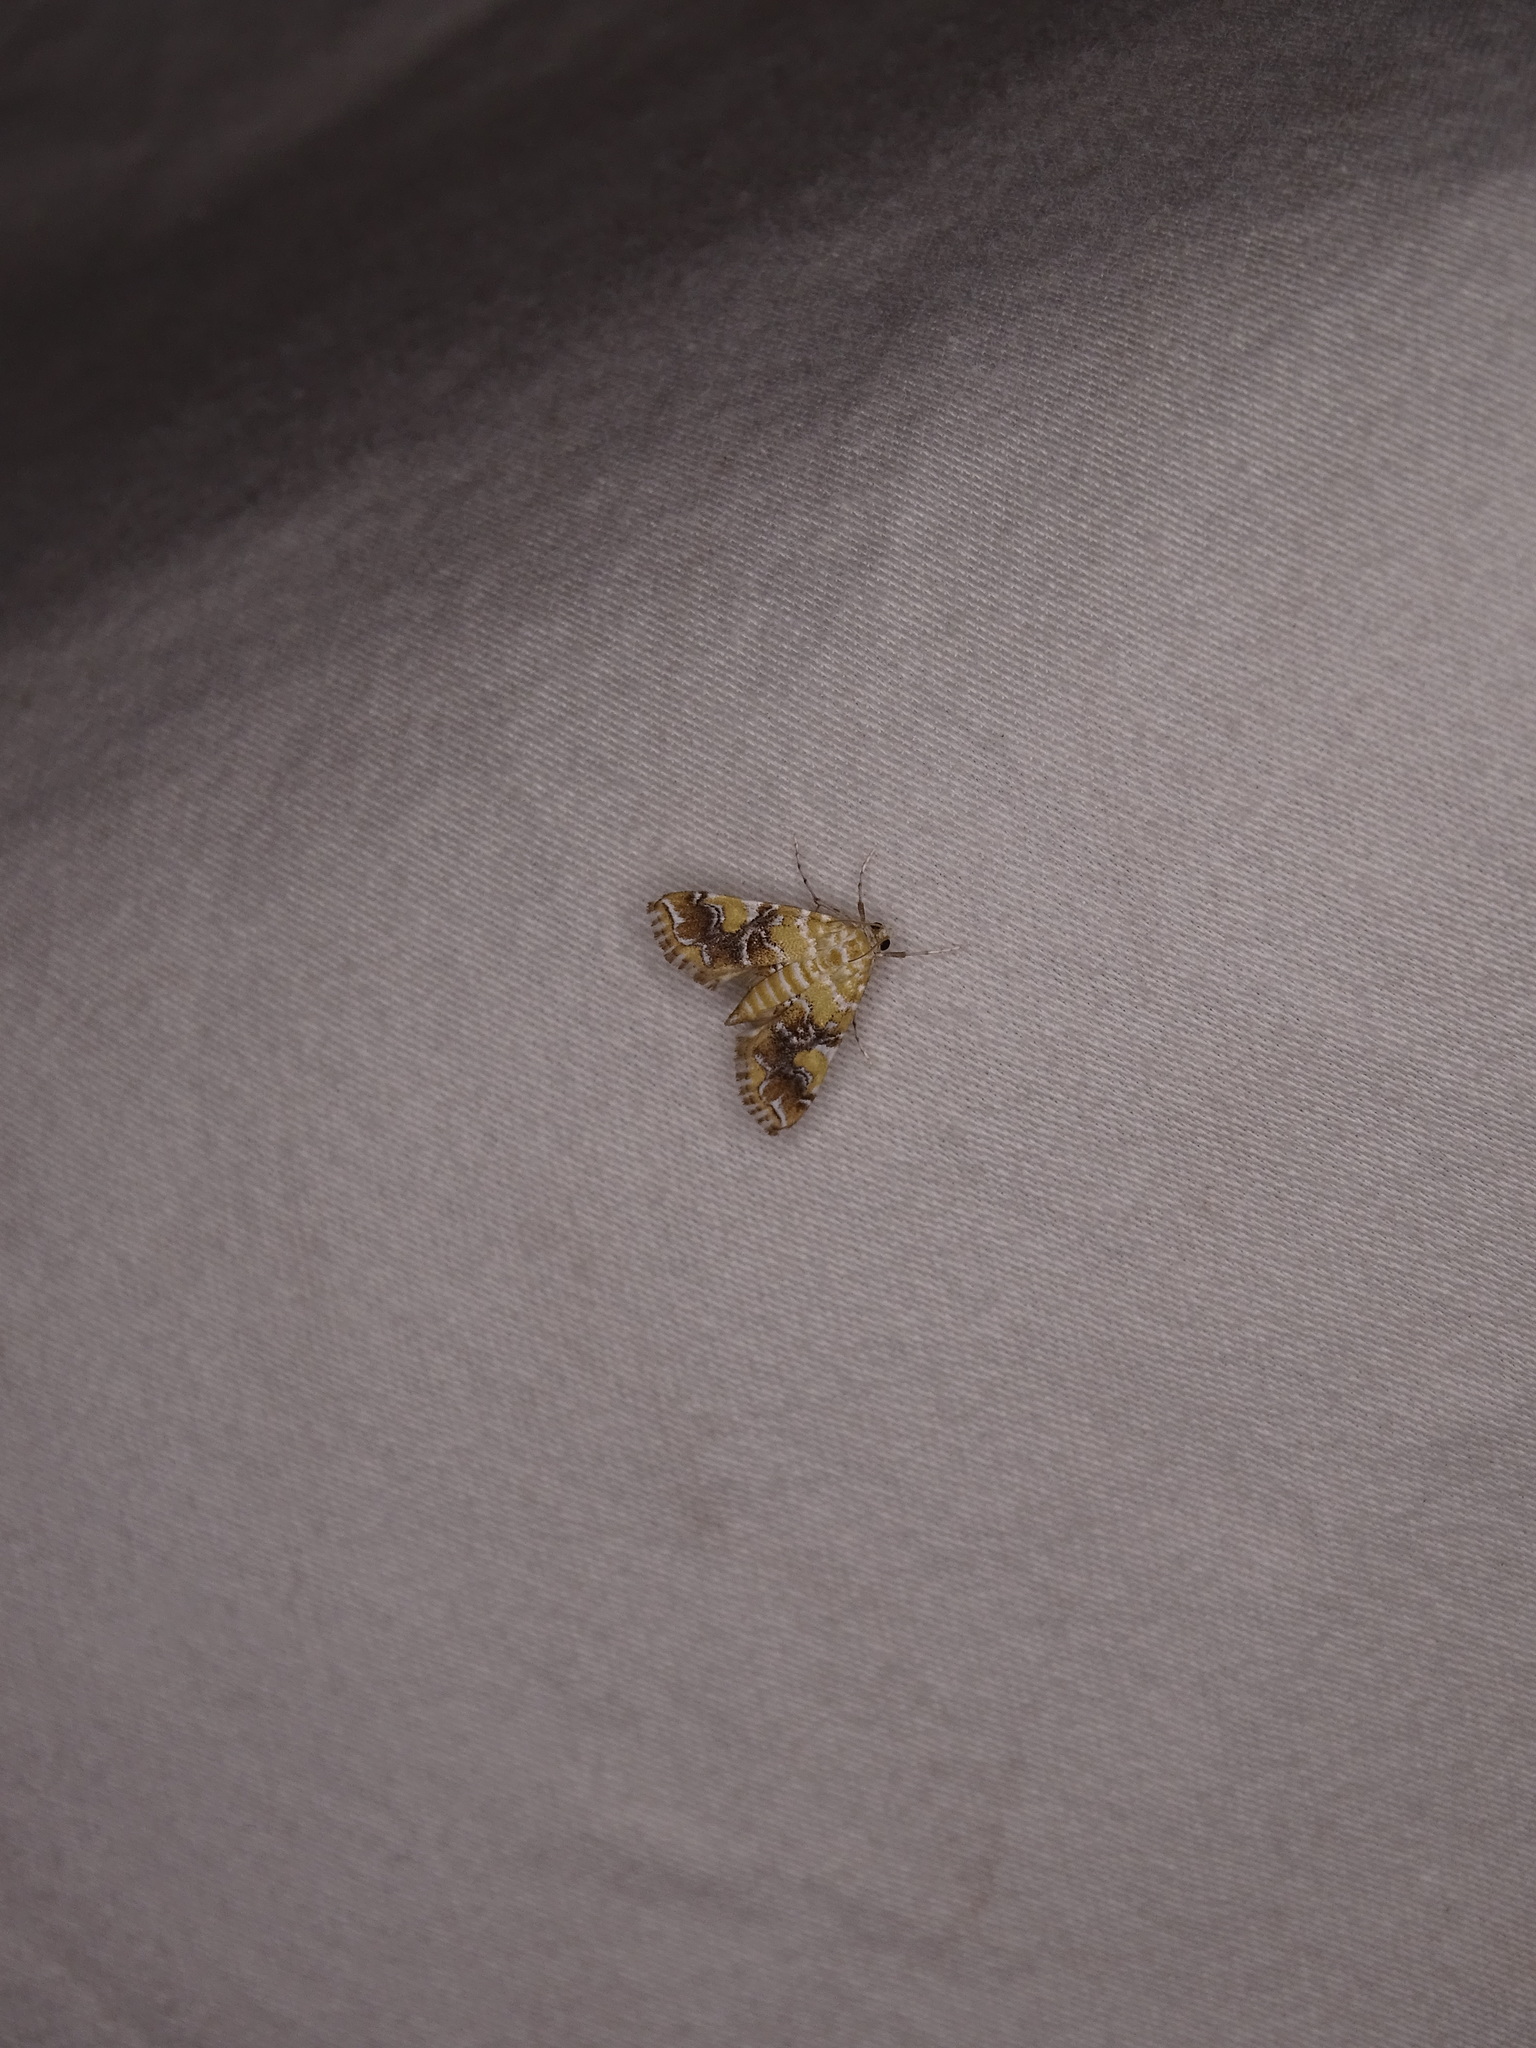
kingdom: Animalia
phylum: Arthropoda
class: Insecta
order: Lepidoptera
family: Crambidae
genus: Elophila
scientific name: Elophila nebulosalis
